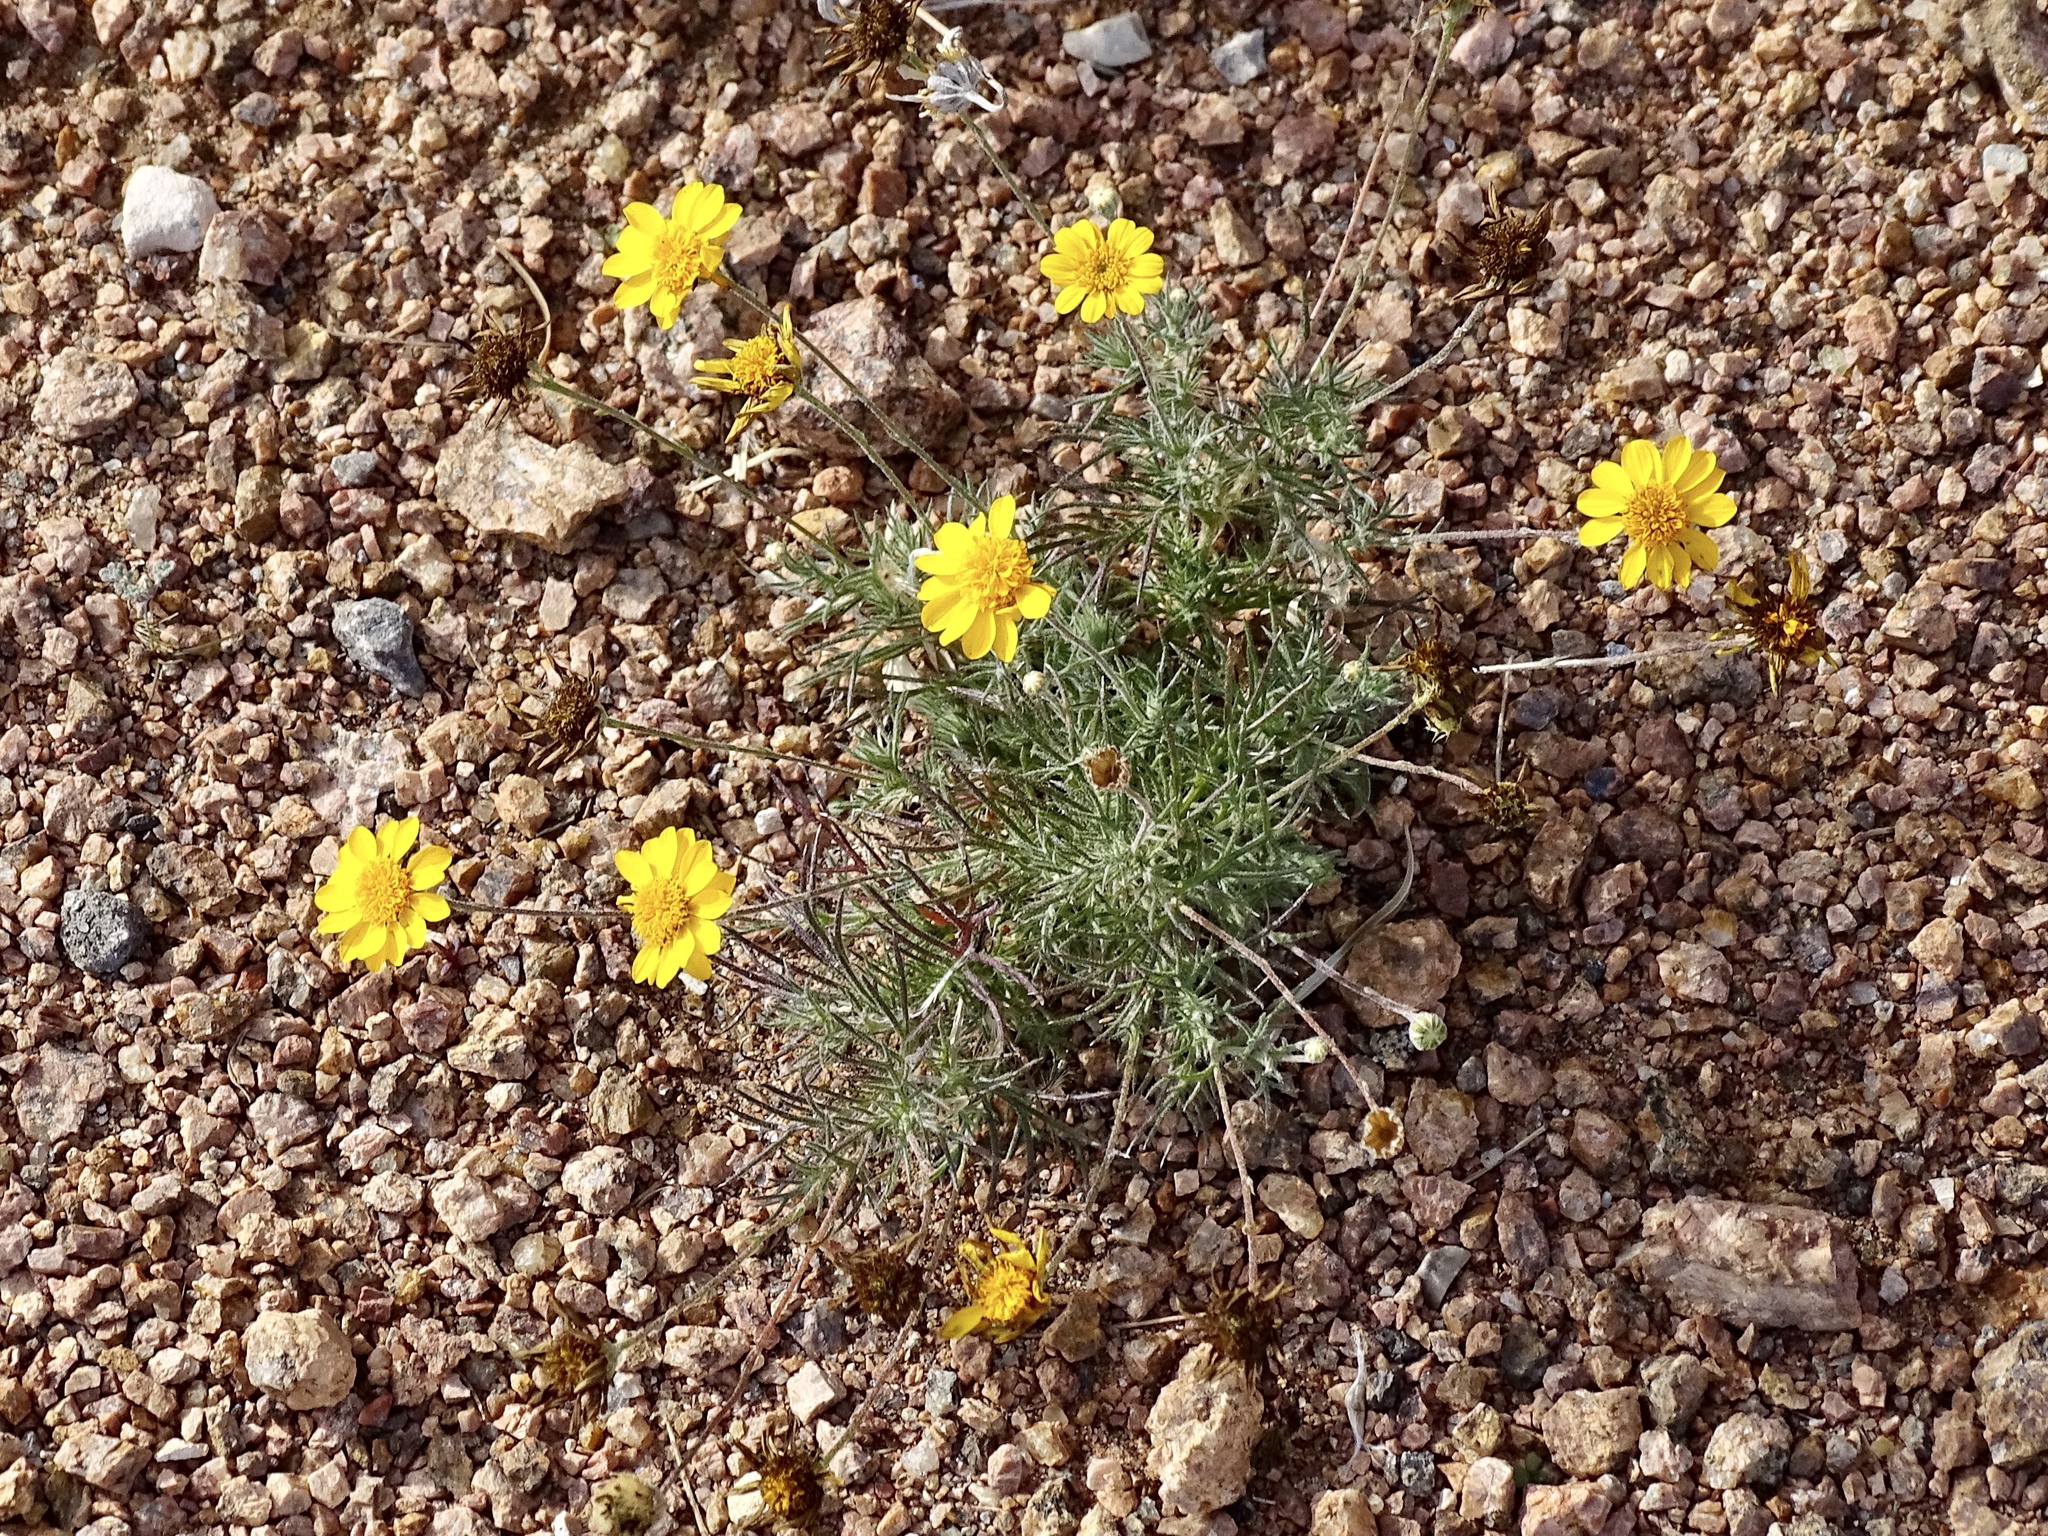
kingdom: Plantae
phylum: Tracheophyta
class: Magnoliopsida
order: Asterales
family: Asteraceae
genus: Thymophylla
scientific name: Thymophylla pentachaeta
